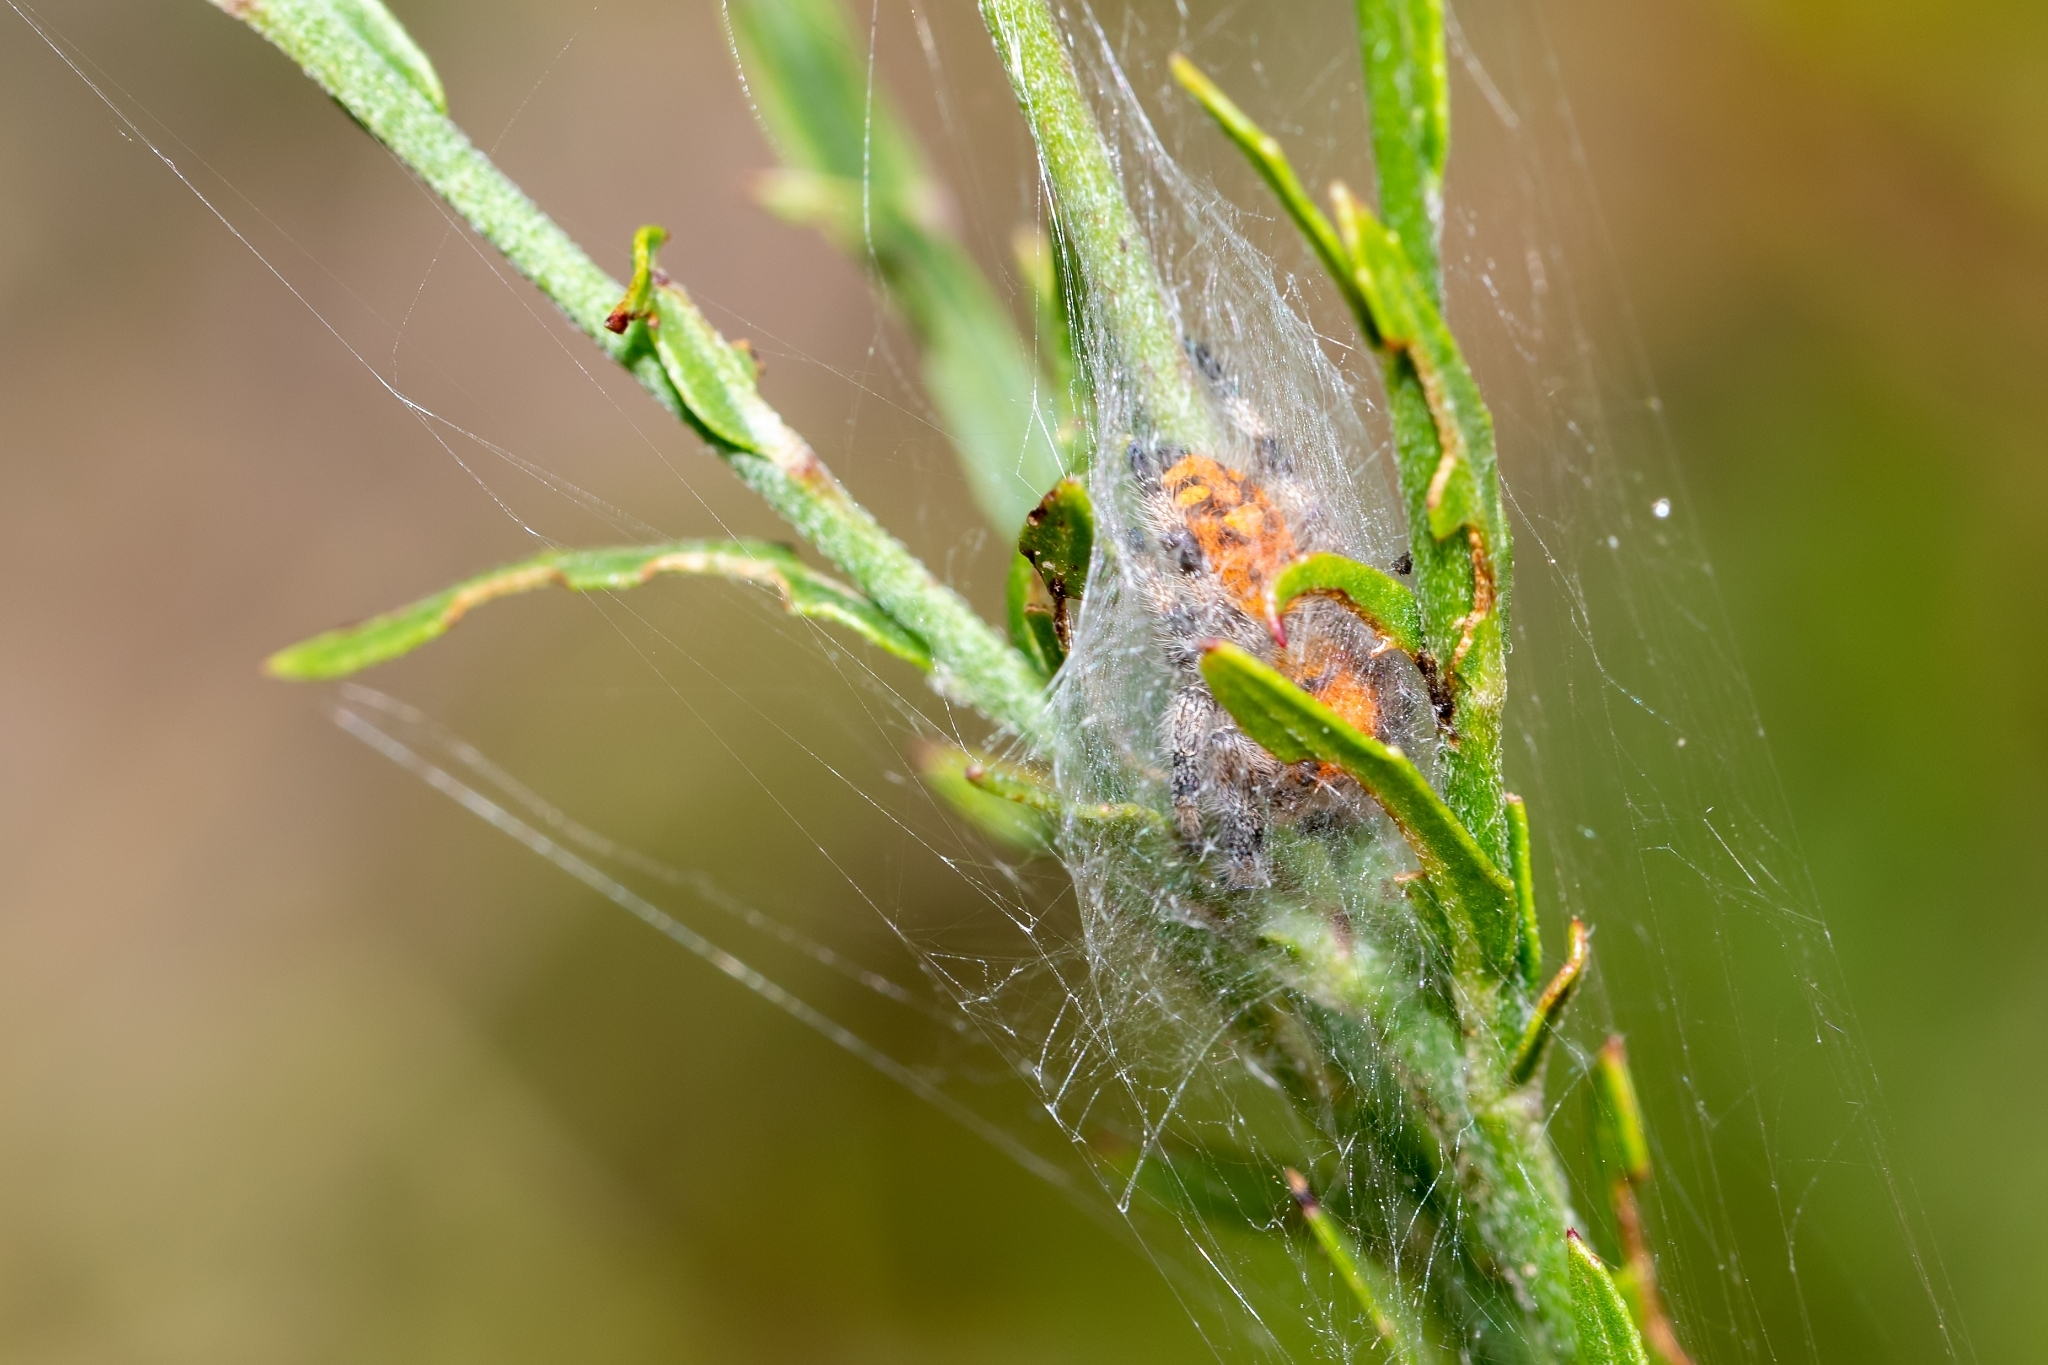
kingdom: Animalia
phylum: Arthropoda
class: Arachnida
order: Araneae
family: Salticidae
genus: Phidippus
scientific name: Phidippus regius
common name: Regal jumper
